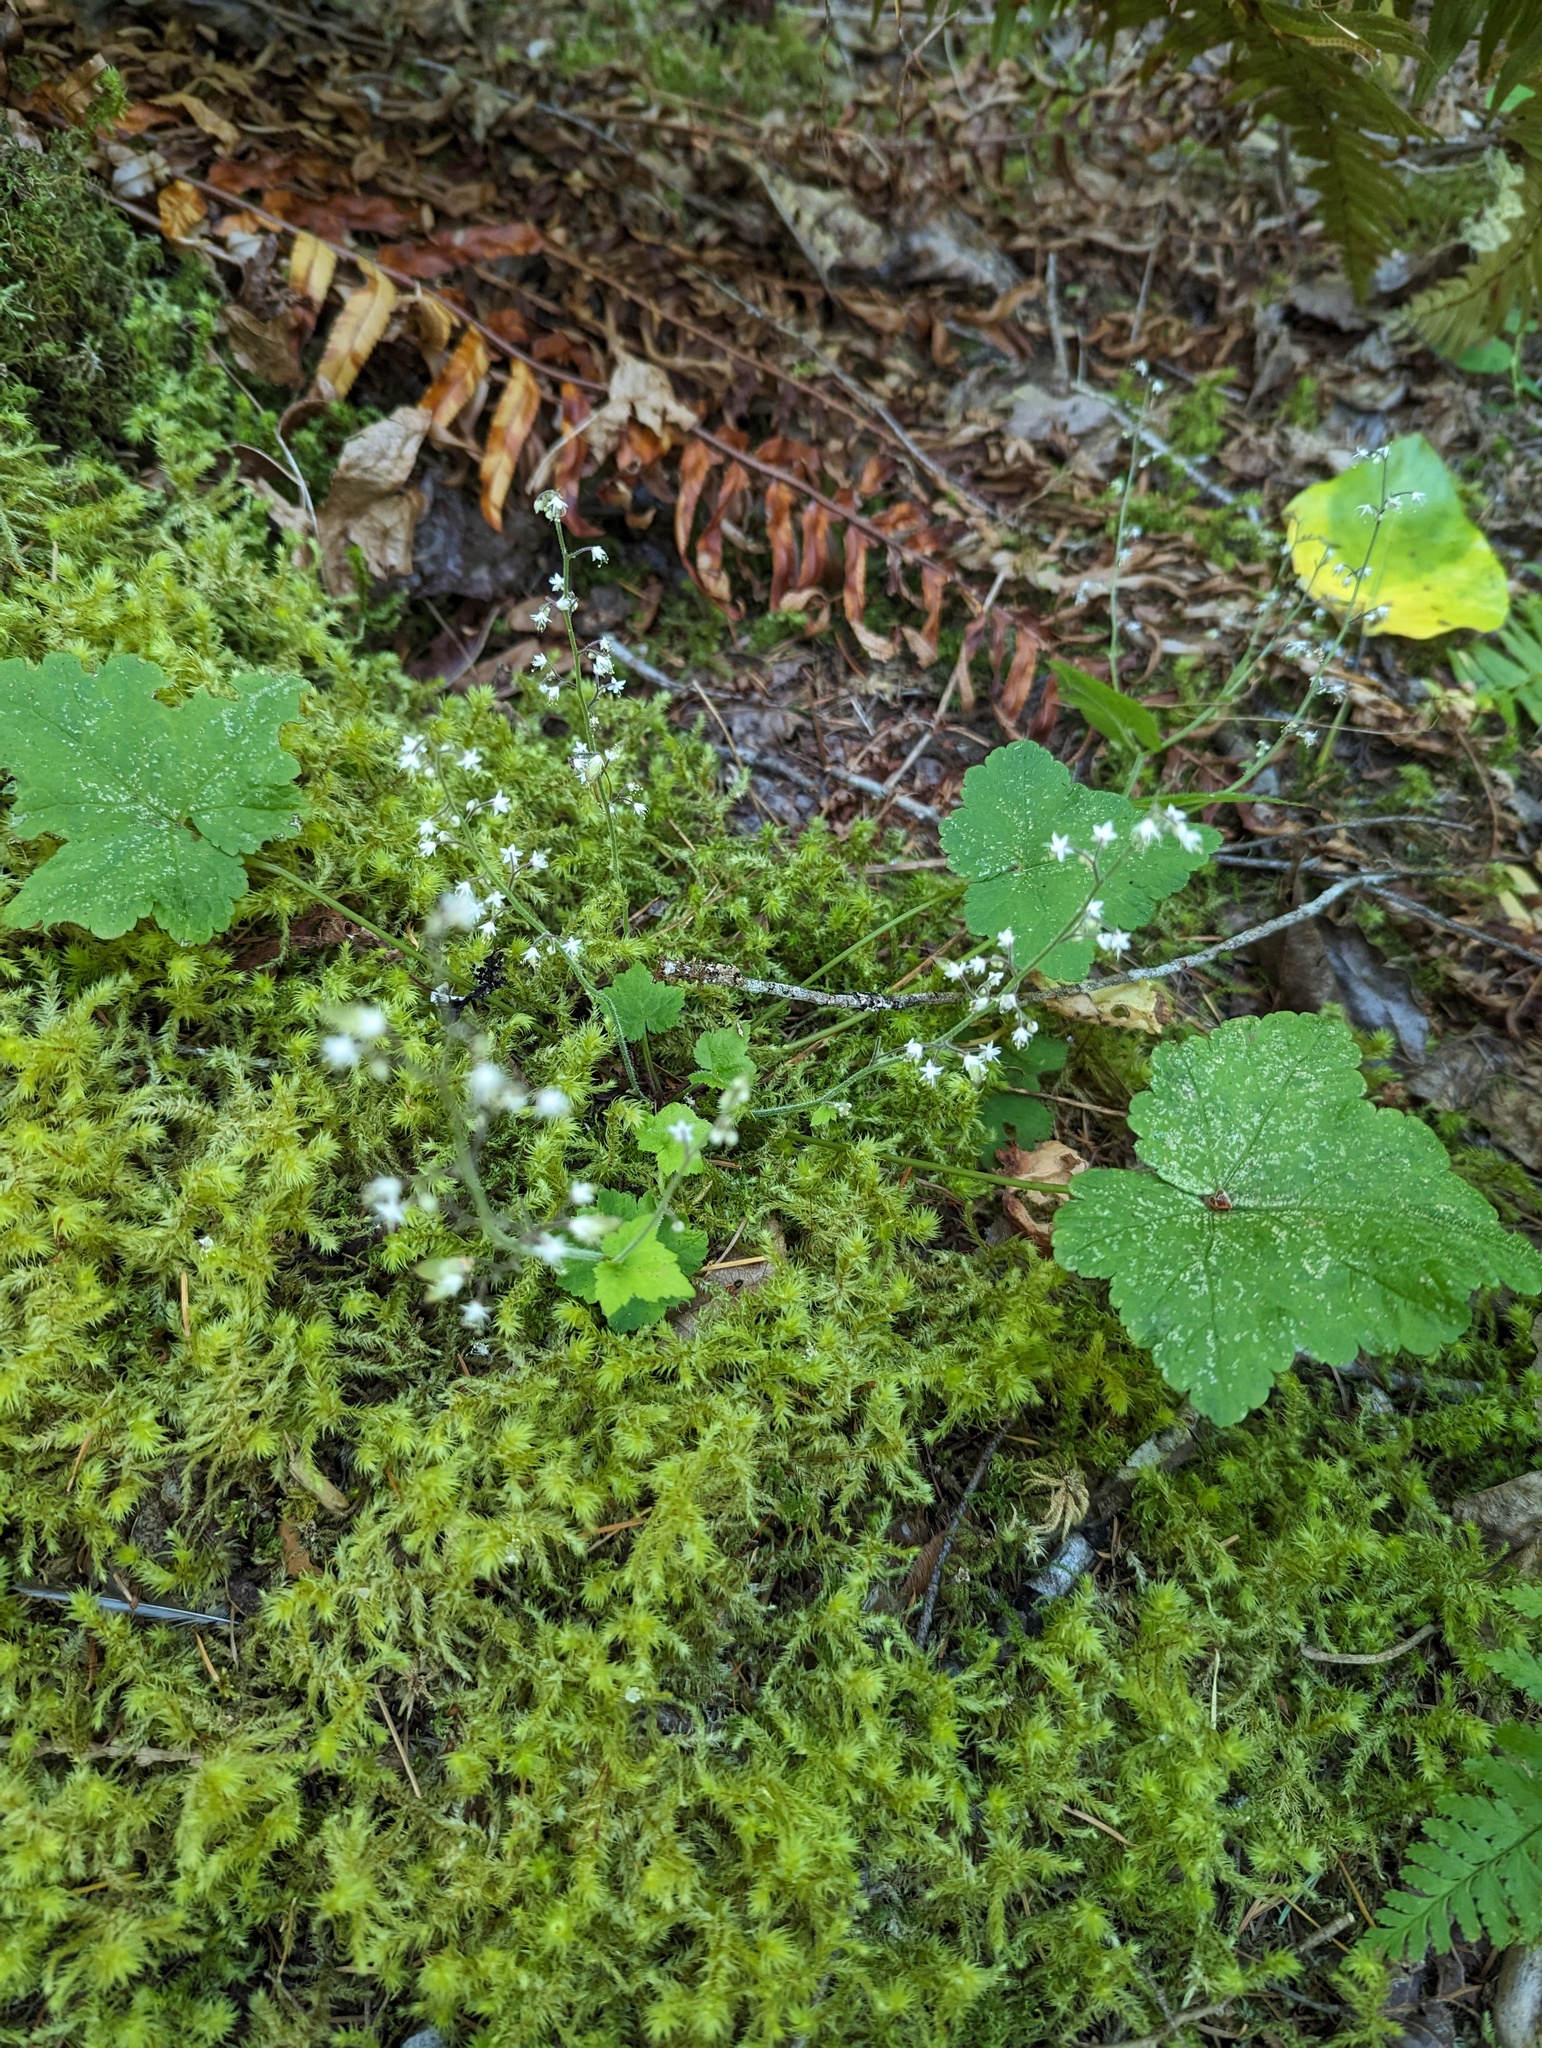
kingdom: Plantae
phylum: Tracheophyta
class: Magnoliopsida
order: Saxifragales
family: Saxifragaceae
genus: Tiarella
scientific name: Tiarella trifoliata
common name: Sugar-scoop
